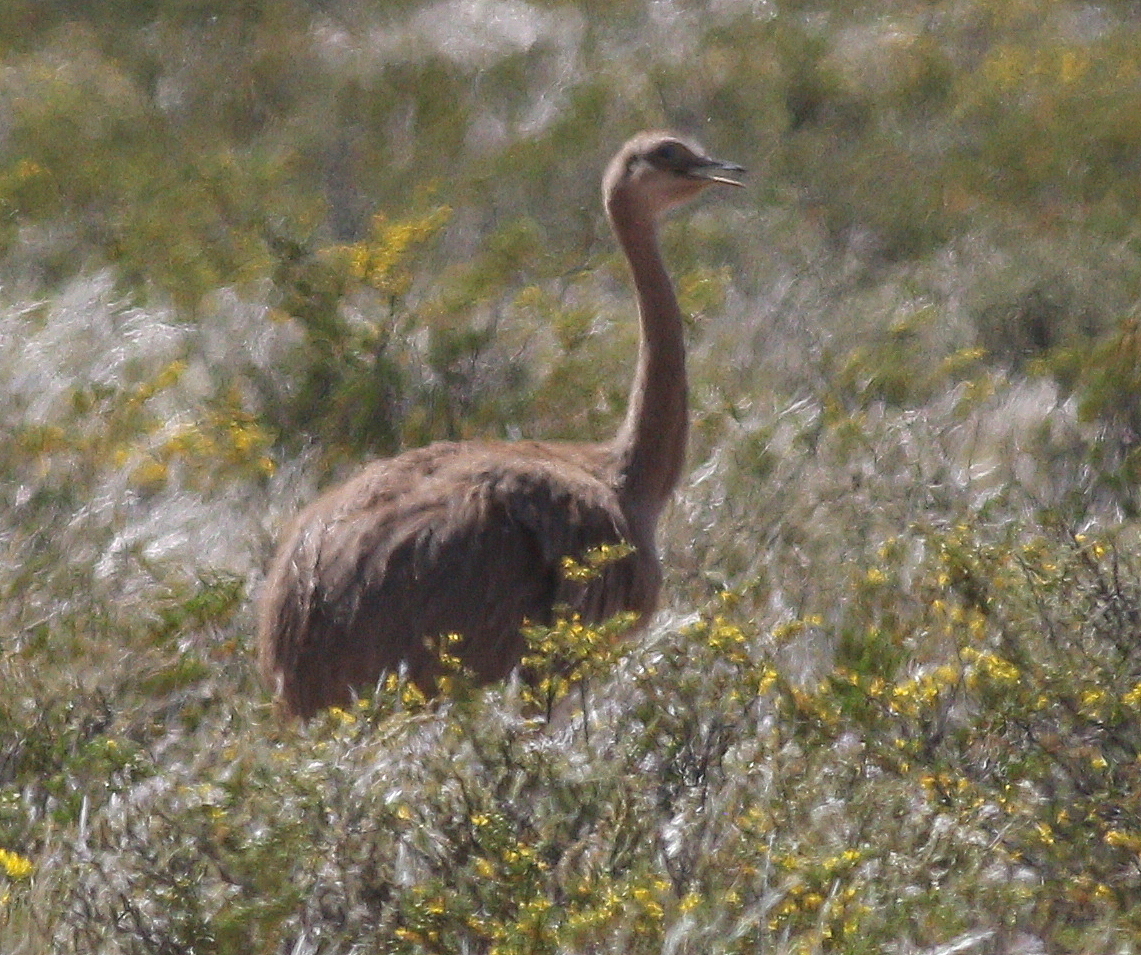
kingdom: Animalia
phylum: Chordata
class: Aves
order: Rheiformes
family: Rheidae
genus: Rhea
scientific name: Rhea pennata
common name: Lesser rhea
